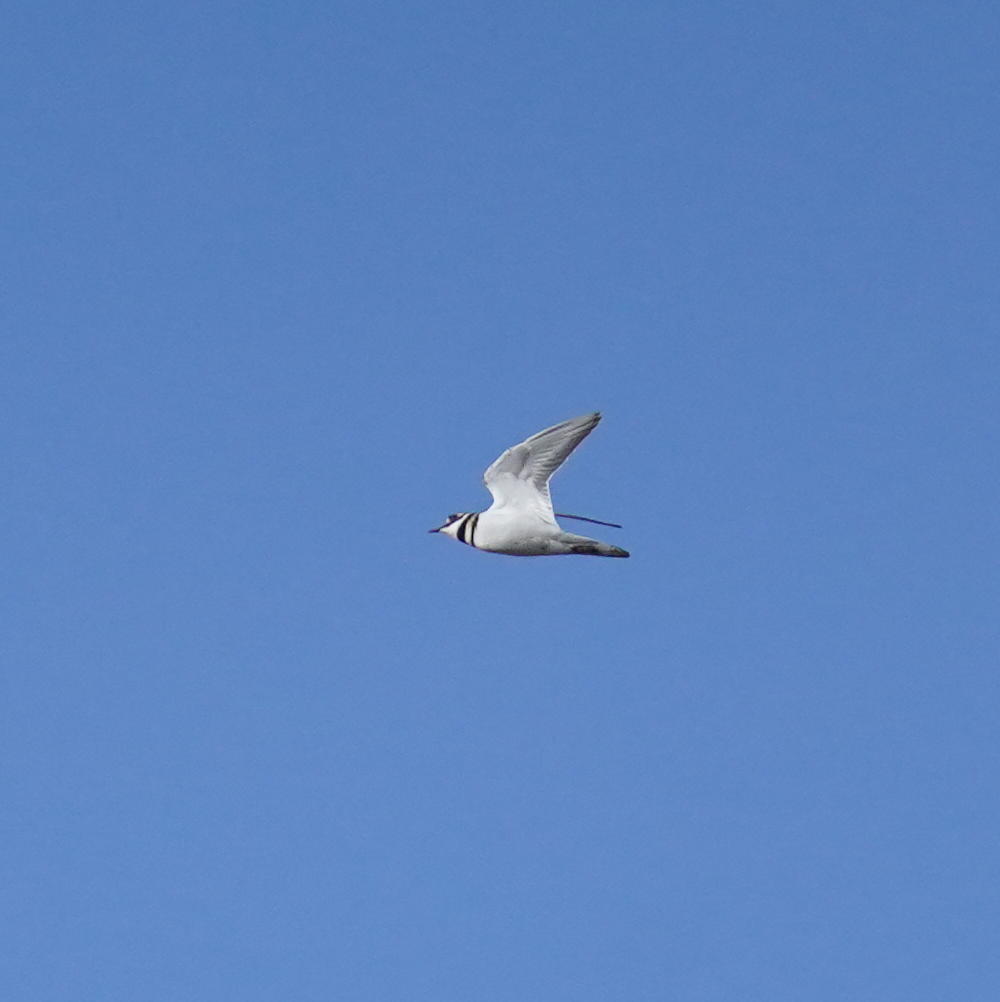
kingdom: Animalia
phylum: Chordata
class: Aves
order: Charadriiformes
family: Charadriidae
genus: Charadrius
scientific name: Charadrius vociferus
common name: Killdeer
